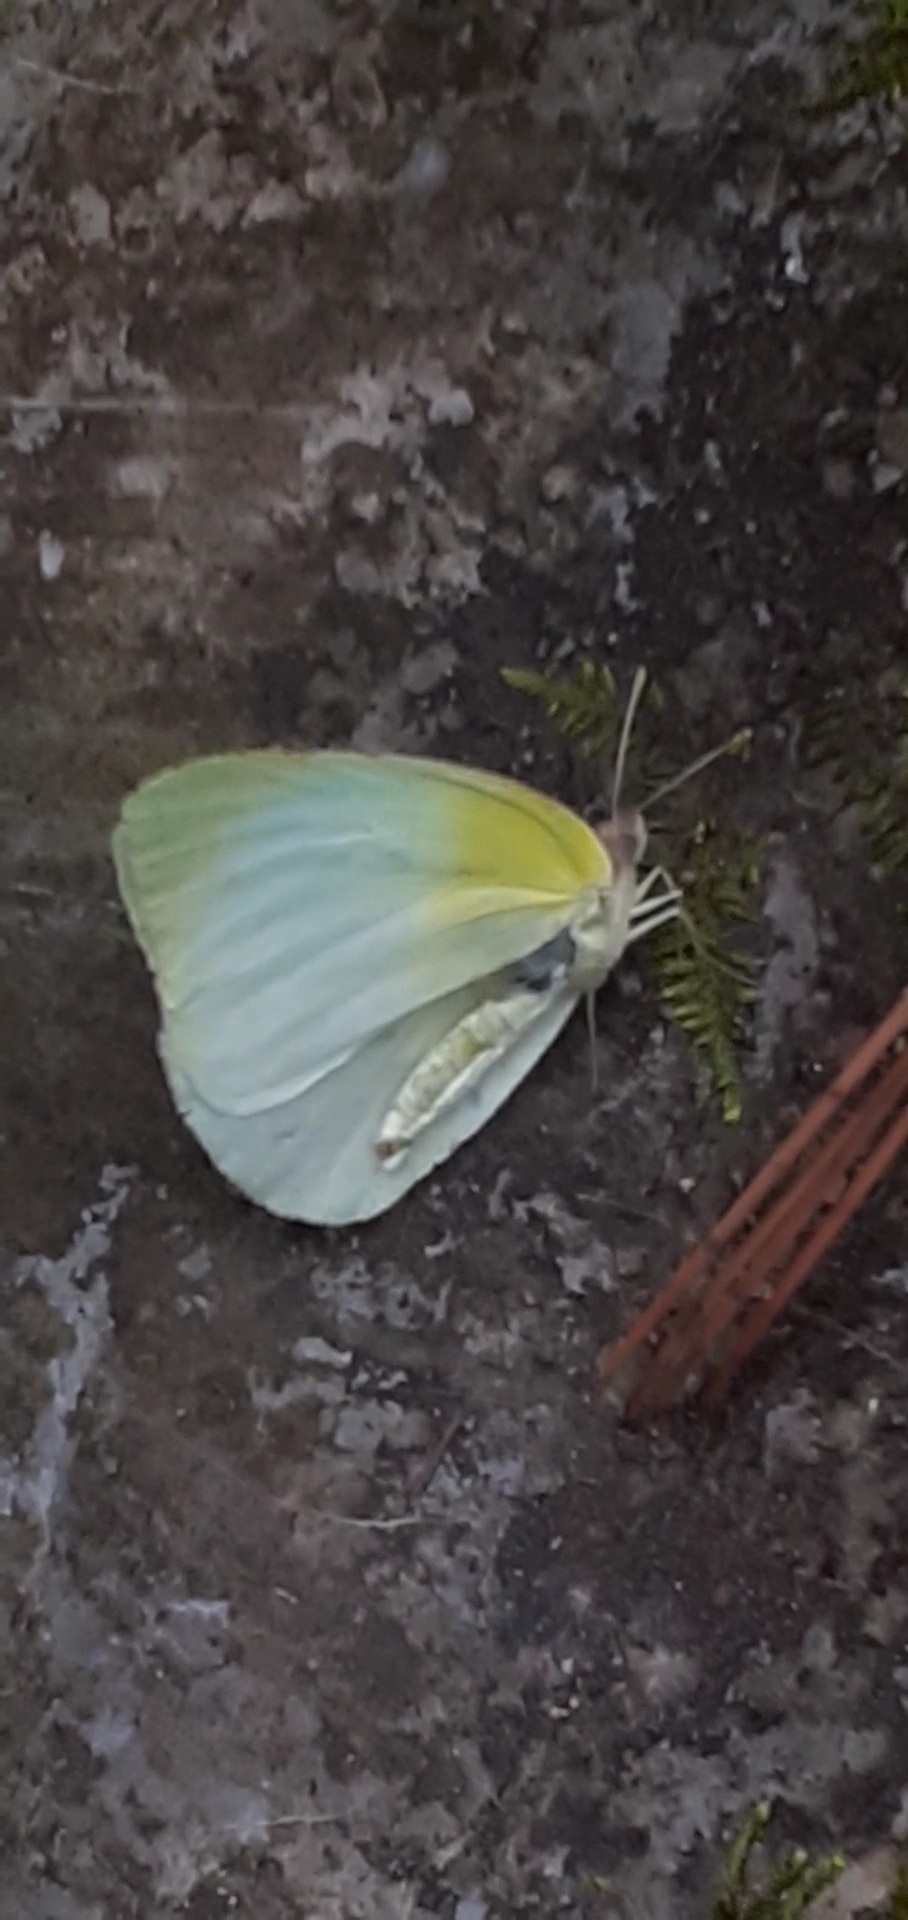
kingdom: Animalia
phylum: Arthropoda
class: Insecta
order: Lepidoptera
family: Pieridae
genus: Kricogonia
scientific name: Kricogonia lyside
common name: Guayacan sulphur,
